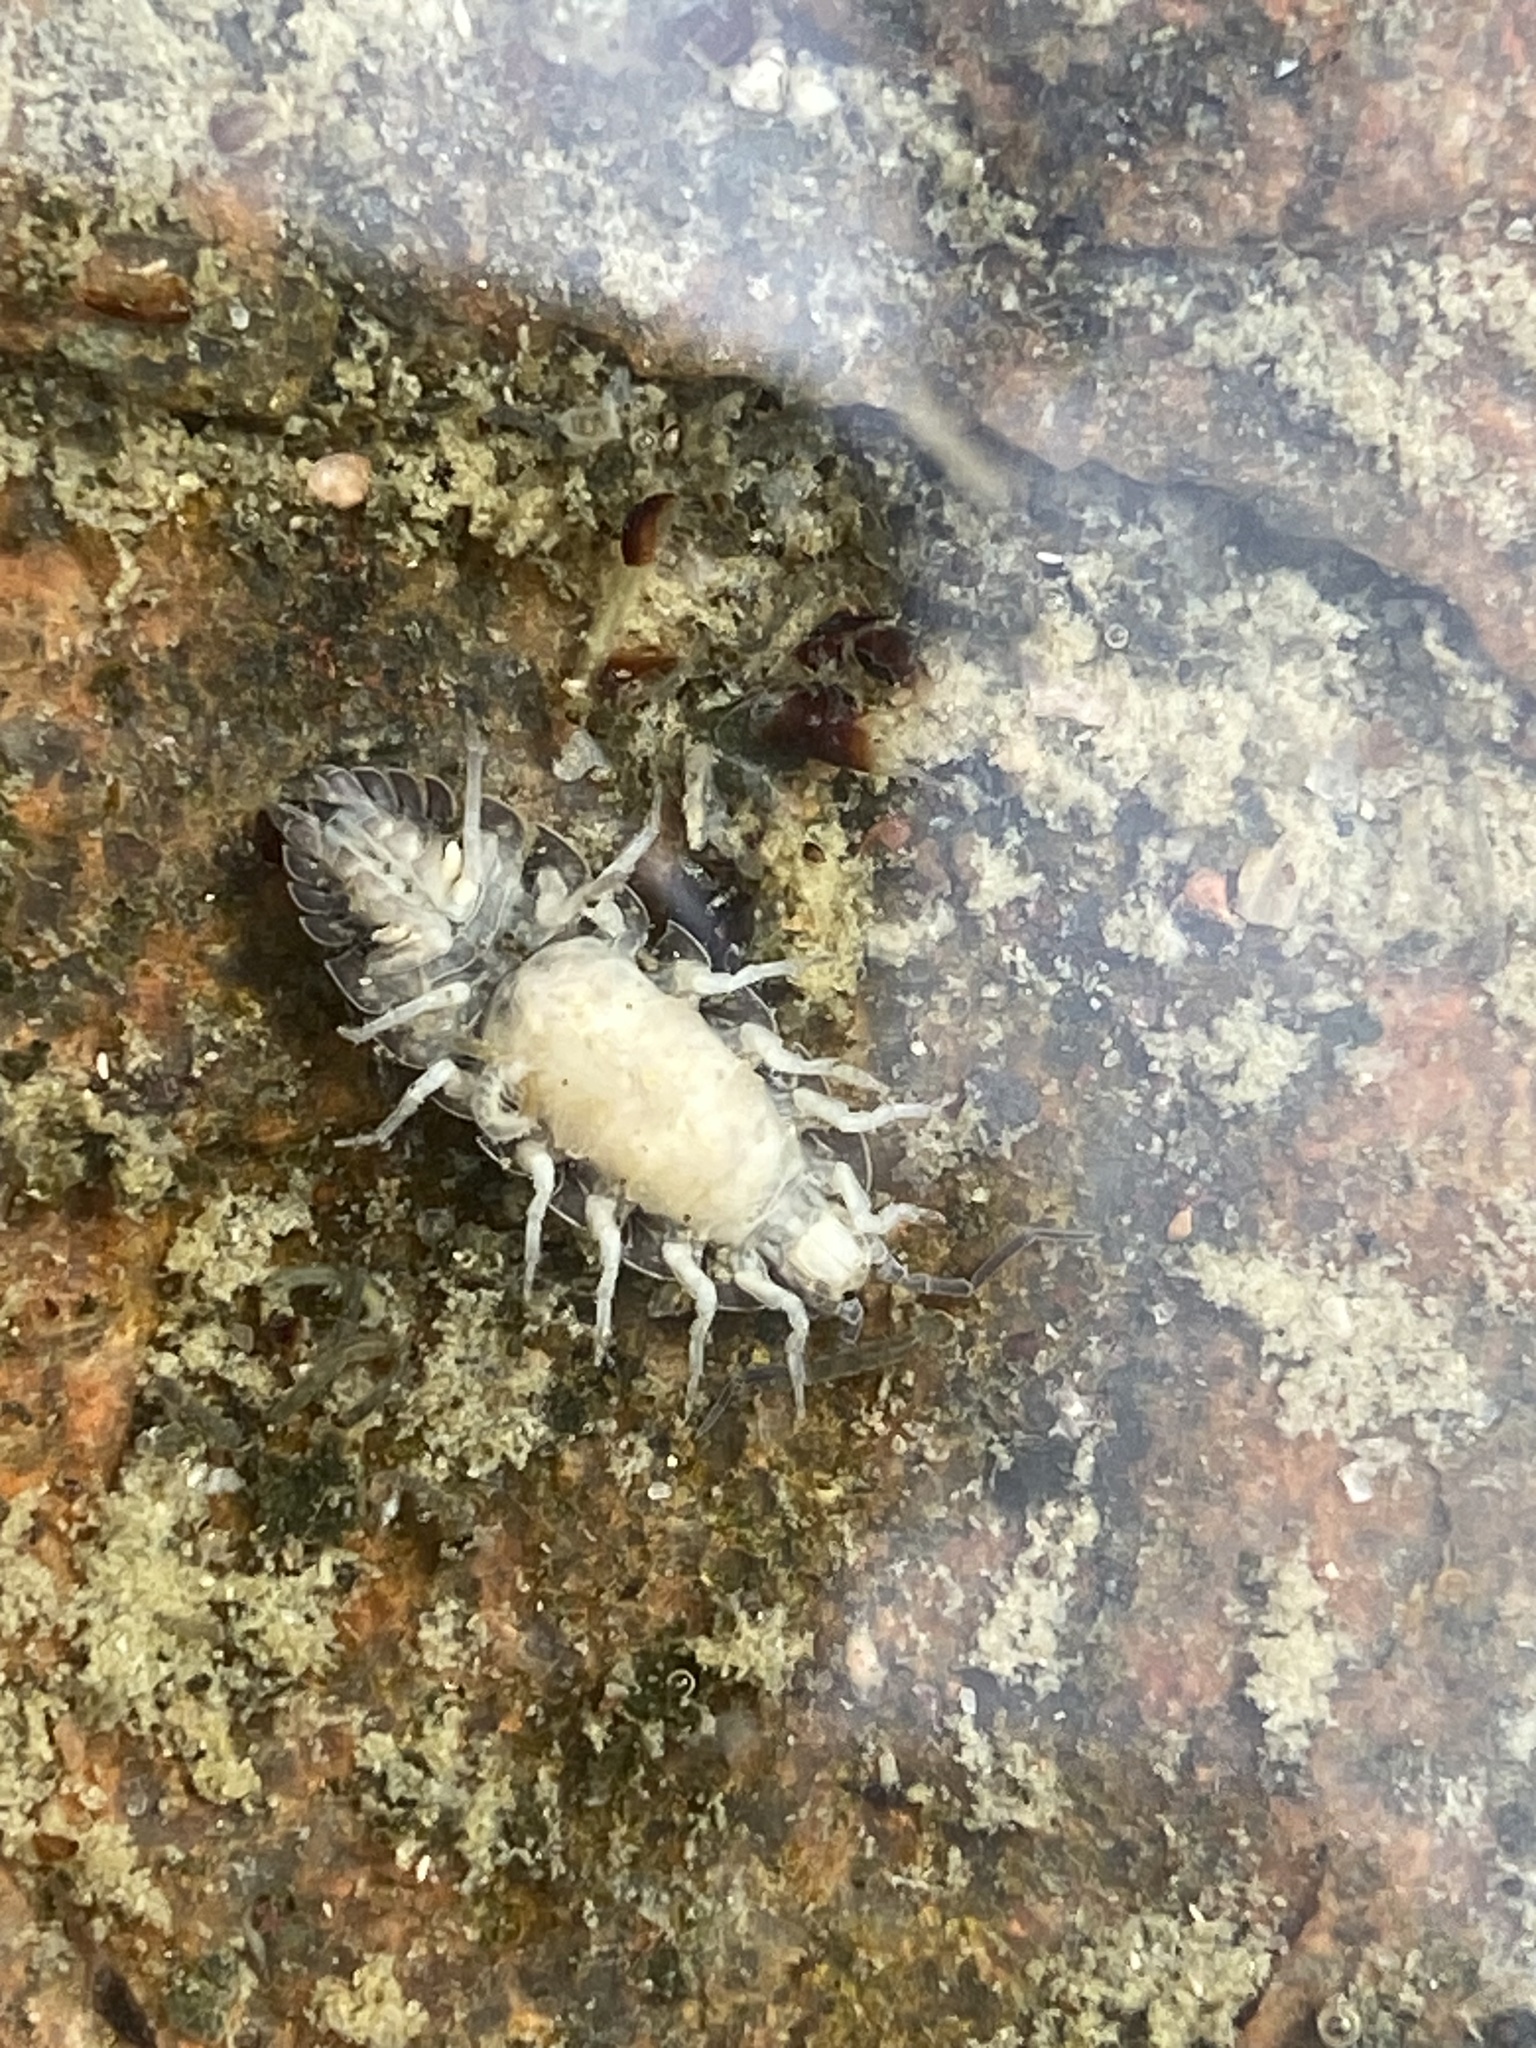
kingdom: Animalia
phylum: Arthropoda
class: Malacostraca
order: Isopoda
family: Porcellionidae
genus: Porcellio
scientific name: Porcellio scaber
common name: Common rough woodlouse
